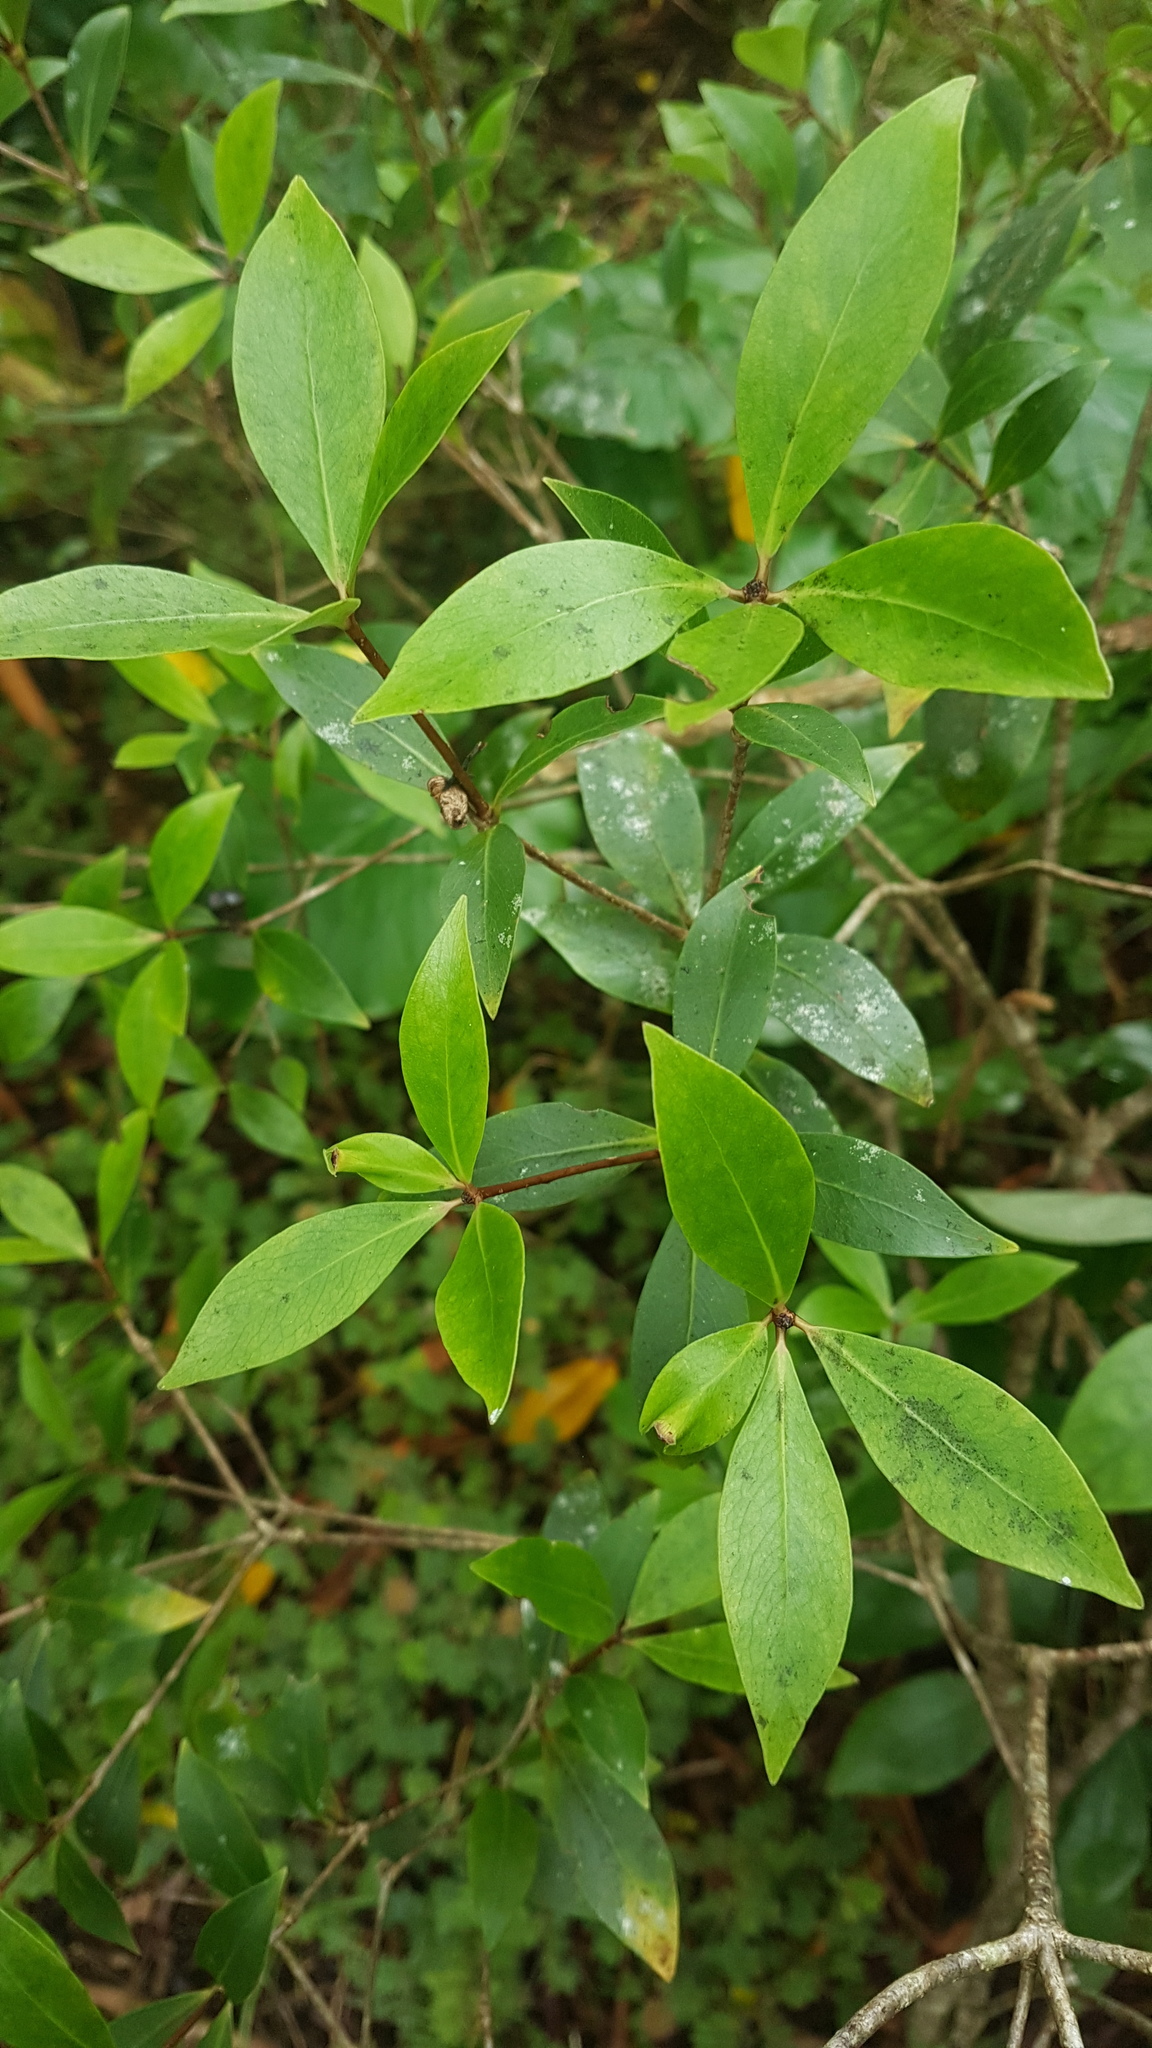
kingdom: Plantae
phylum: Tracheophyta
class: Magnoliopsida
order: Apiales
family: Pittosporaceae
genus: Pittosporum
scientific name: Pittosporum cornifolium
